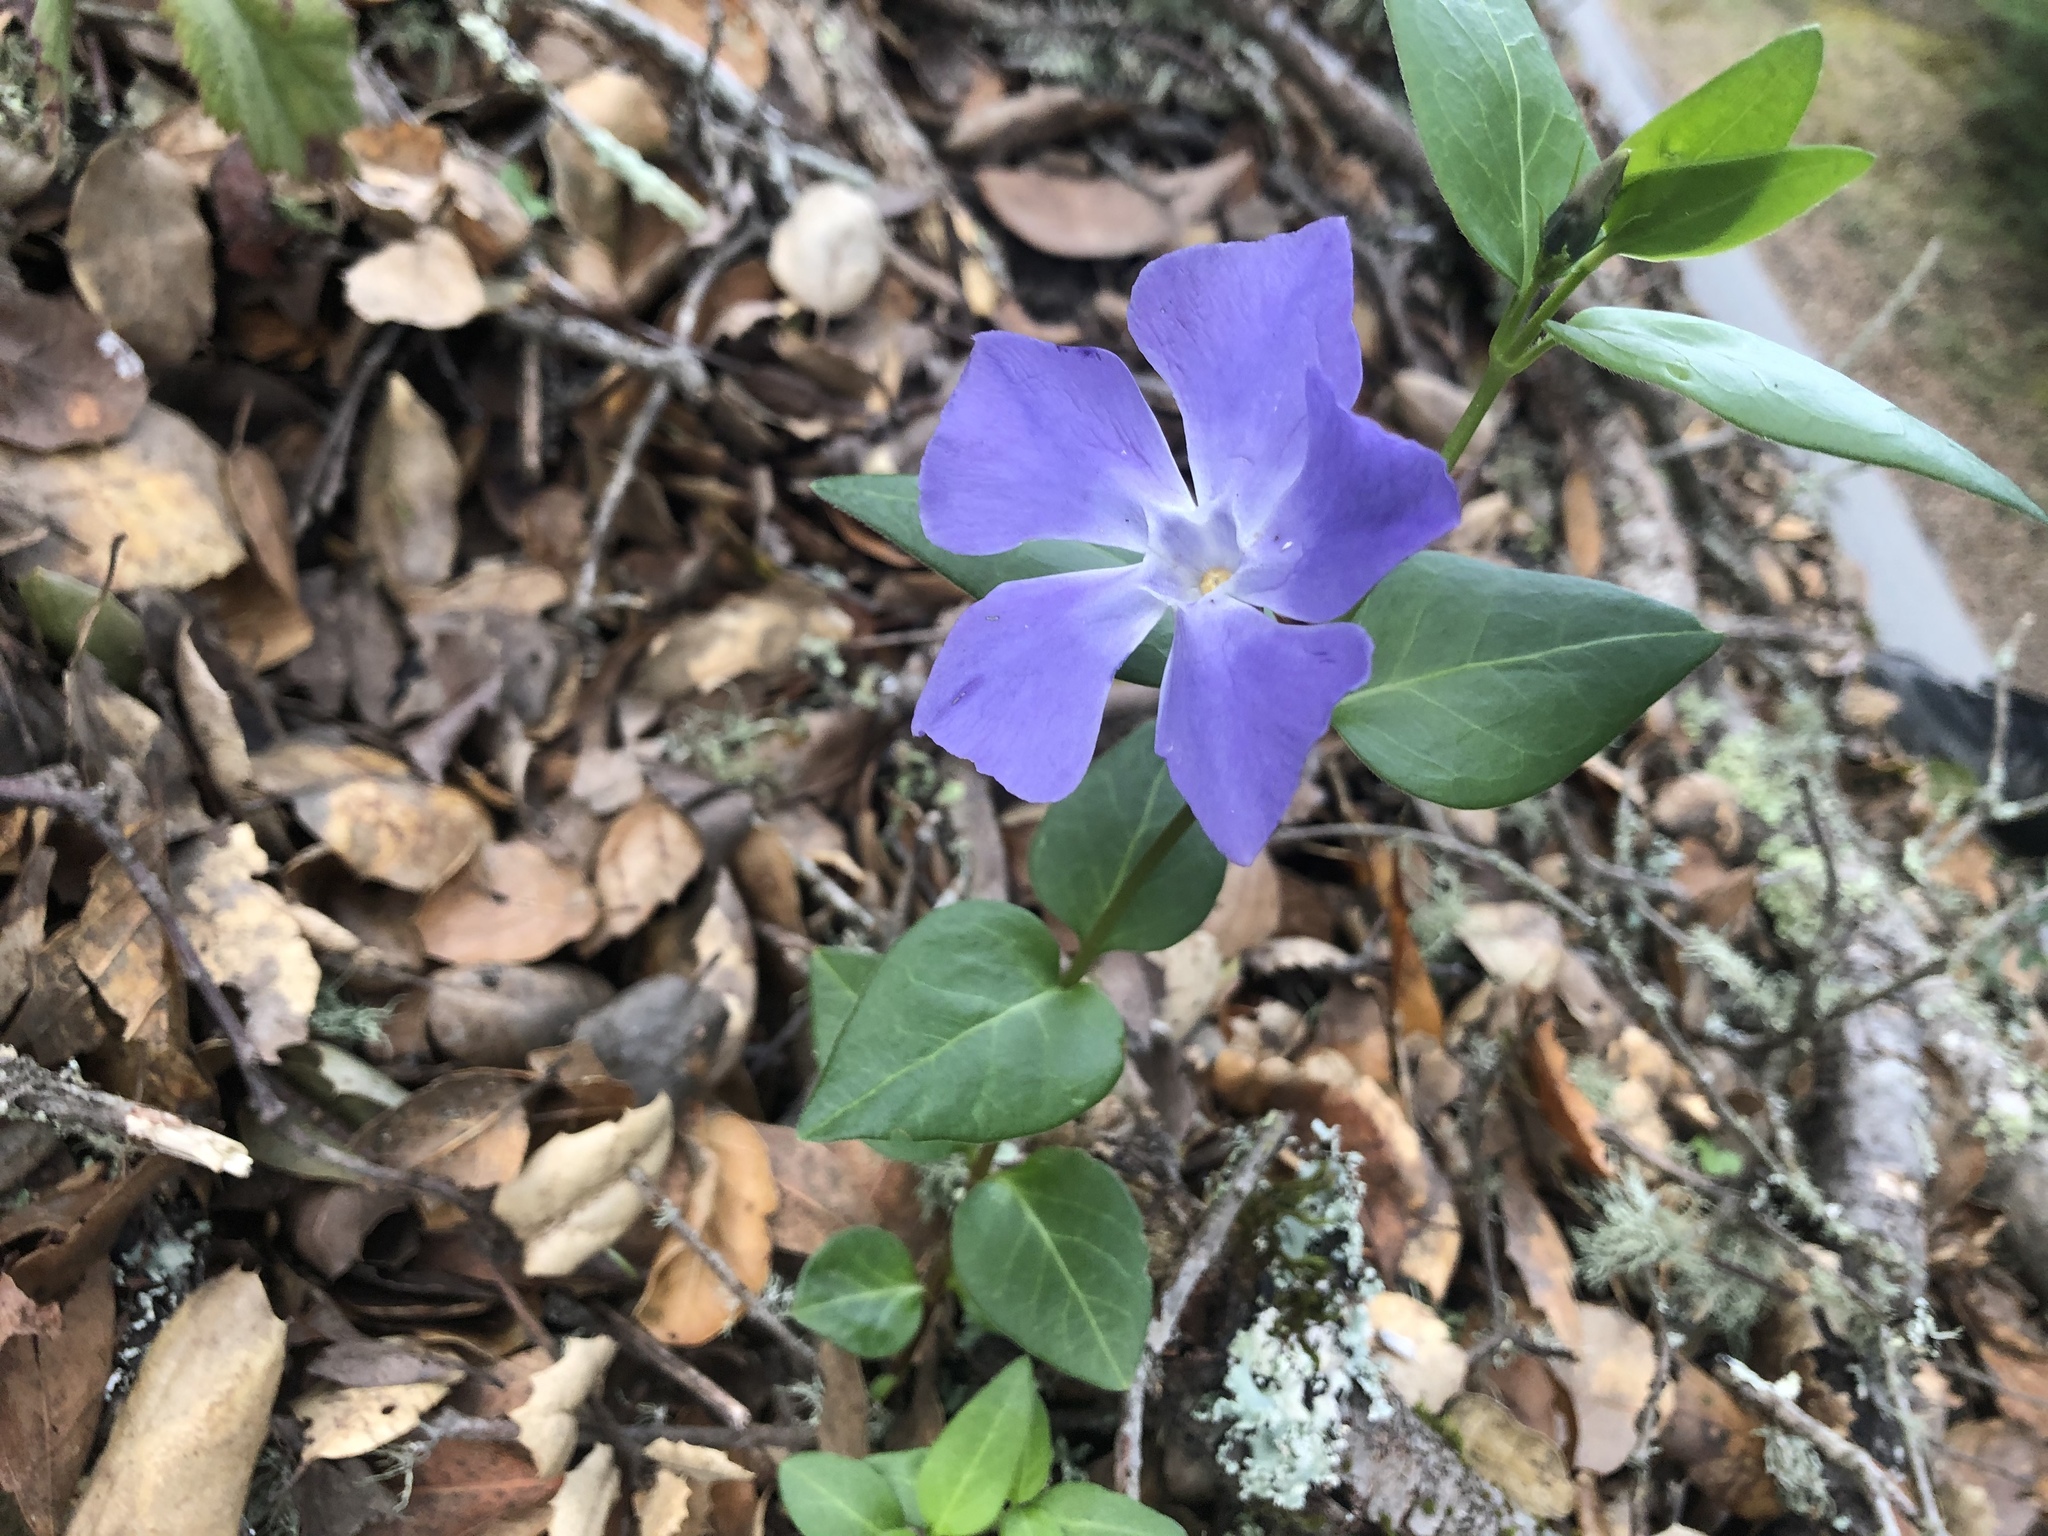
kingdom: Plantae
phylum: Tracheophyta
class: Magnoliopsida
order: Gentianales
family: Apocynaceae
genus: Vinca
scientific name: Vinca major
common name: Greater periwinkle
